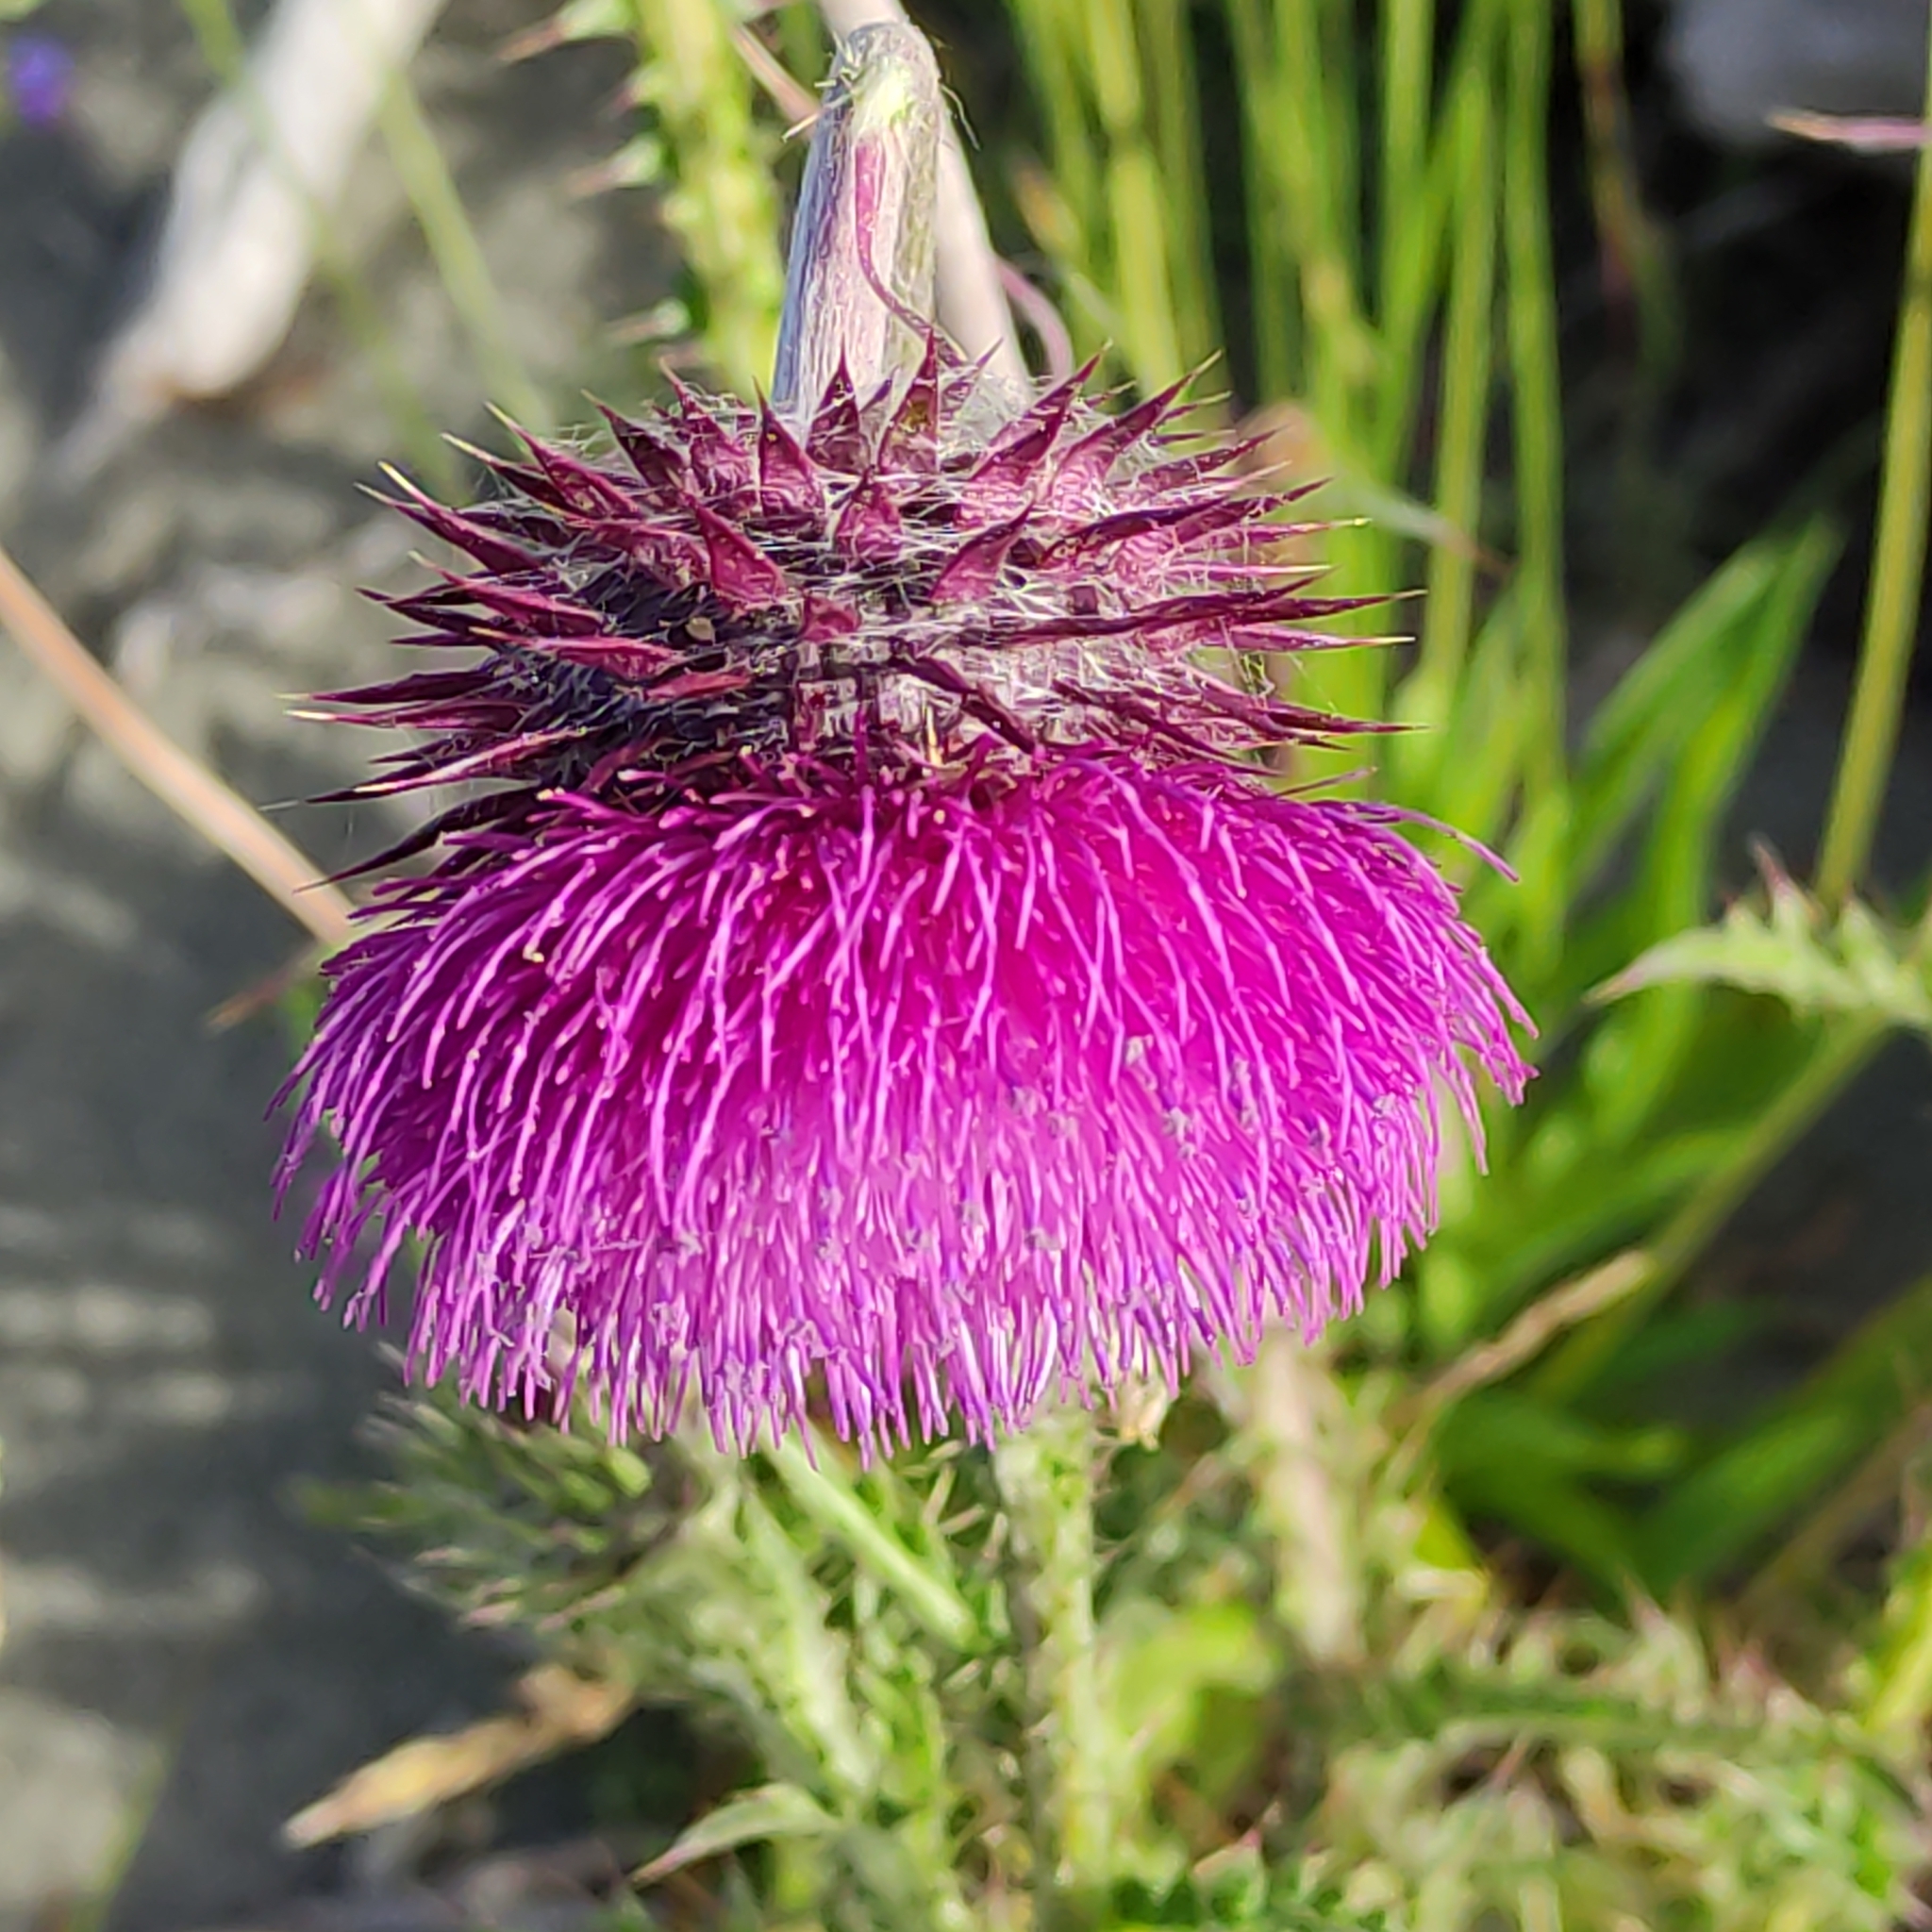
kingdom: Plantae
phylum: Tracheophyta
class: Magnoliopsida
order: Asterales
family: Asteraceae
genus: Carduus
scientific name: Carduus nutans
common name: Musk thistle
